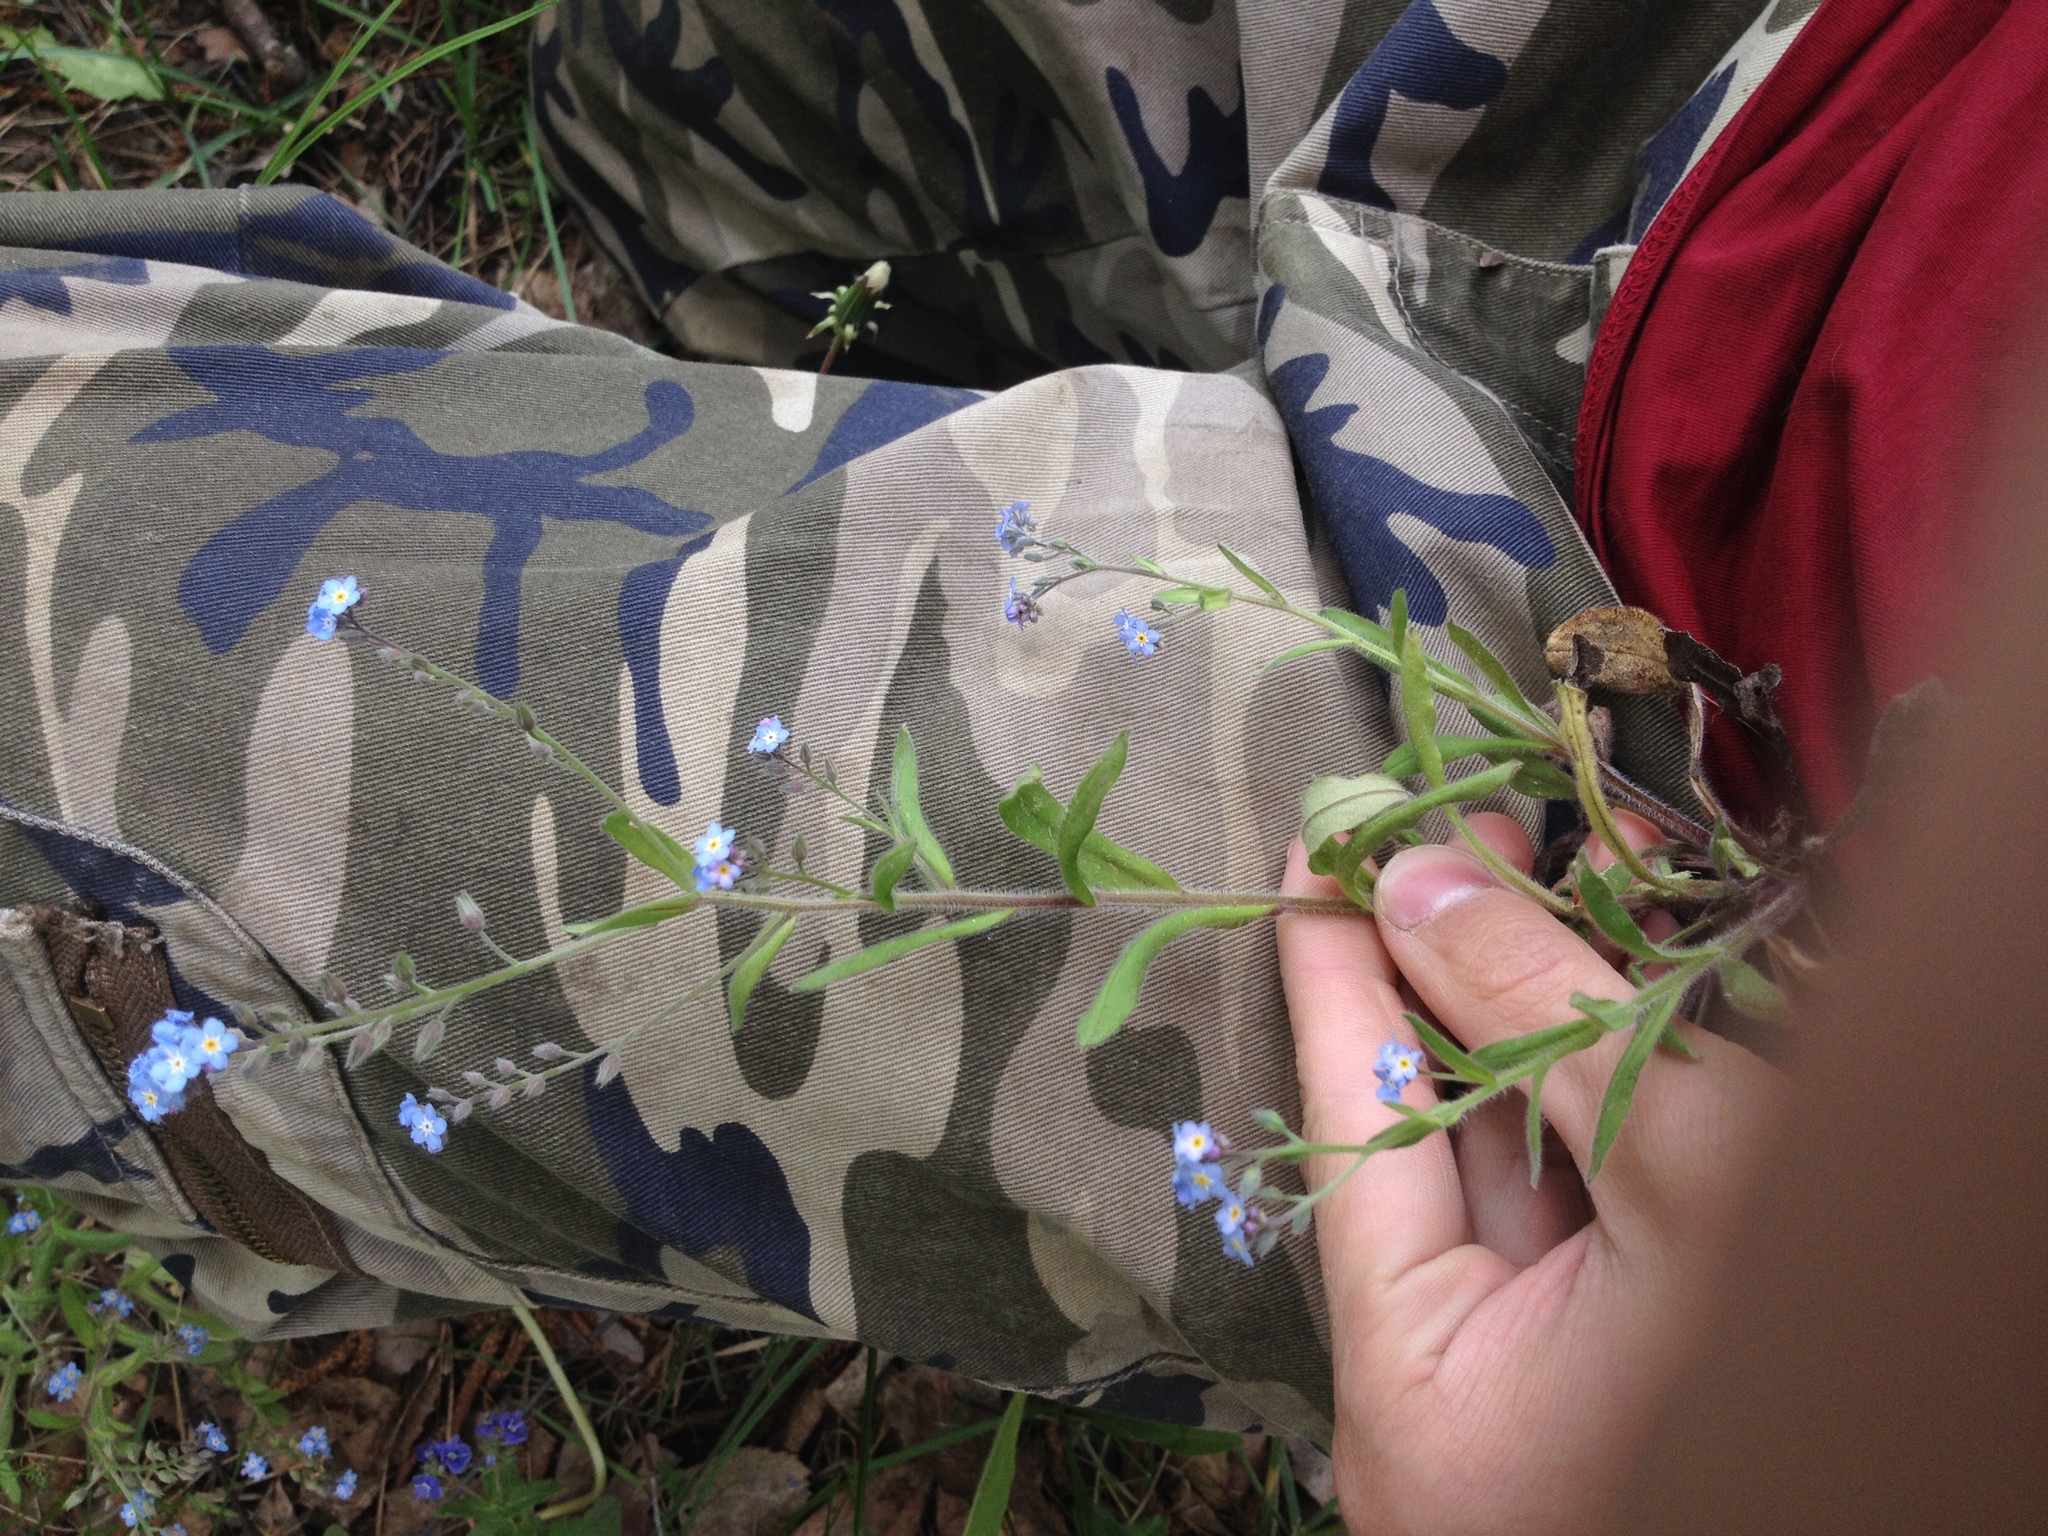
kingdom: Plantae
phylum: Tracheophyta
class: Magnoliopsida
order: Boraginales
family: Boraginaceae
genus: Myosotis
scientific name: Myosotis arvensis
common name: Field forget-me-not
